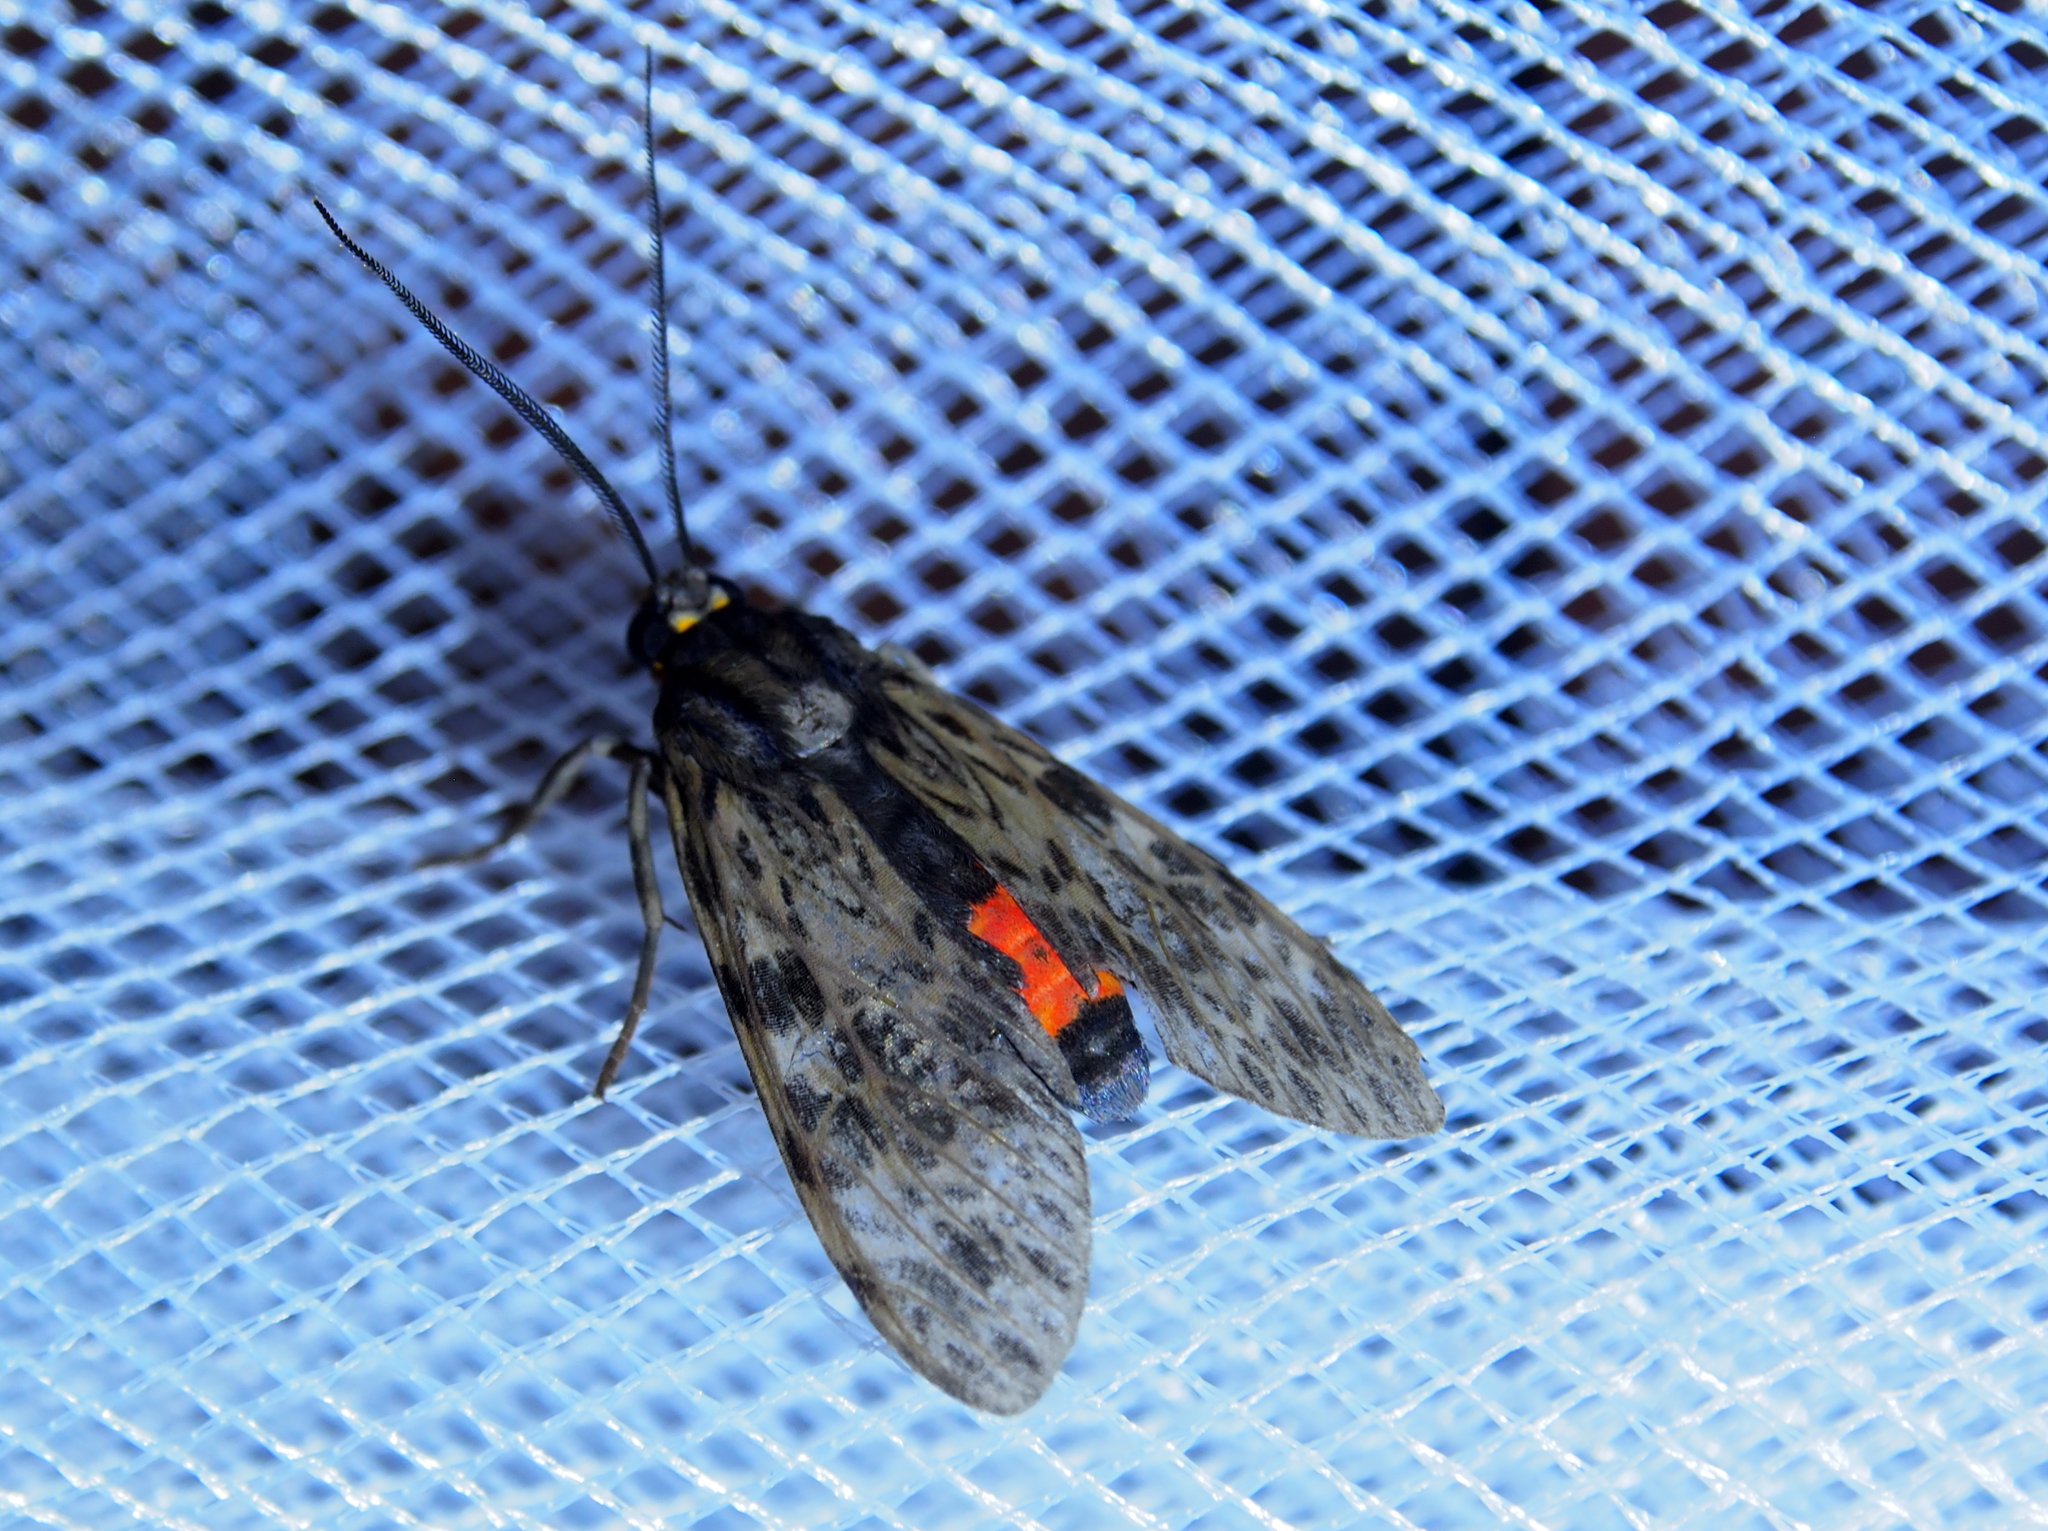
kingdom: Animalia
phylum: Arthropoda
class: Insecta
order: Lepidoptera
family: Erebidae
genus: Eucereon
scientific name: Eucereon pseudarchias
